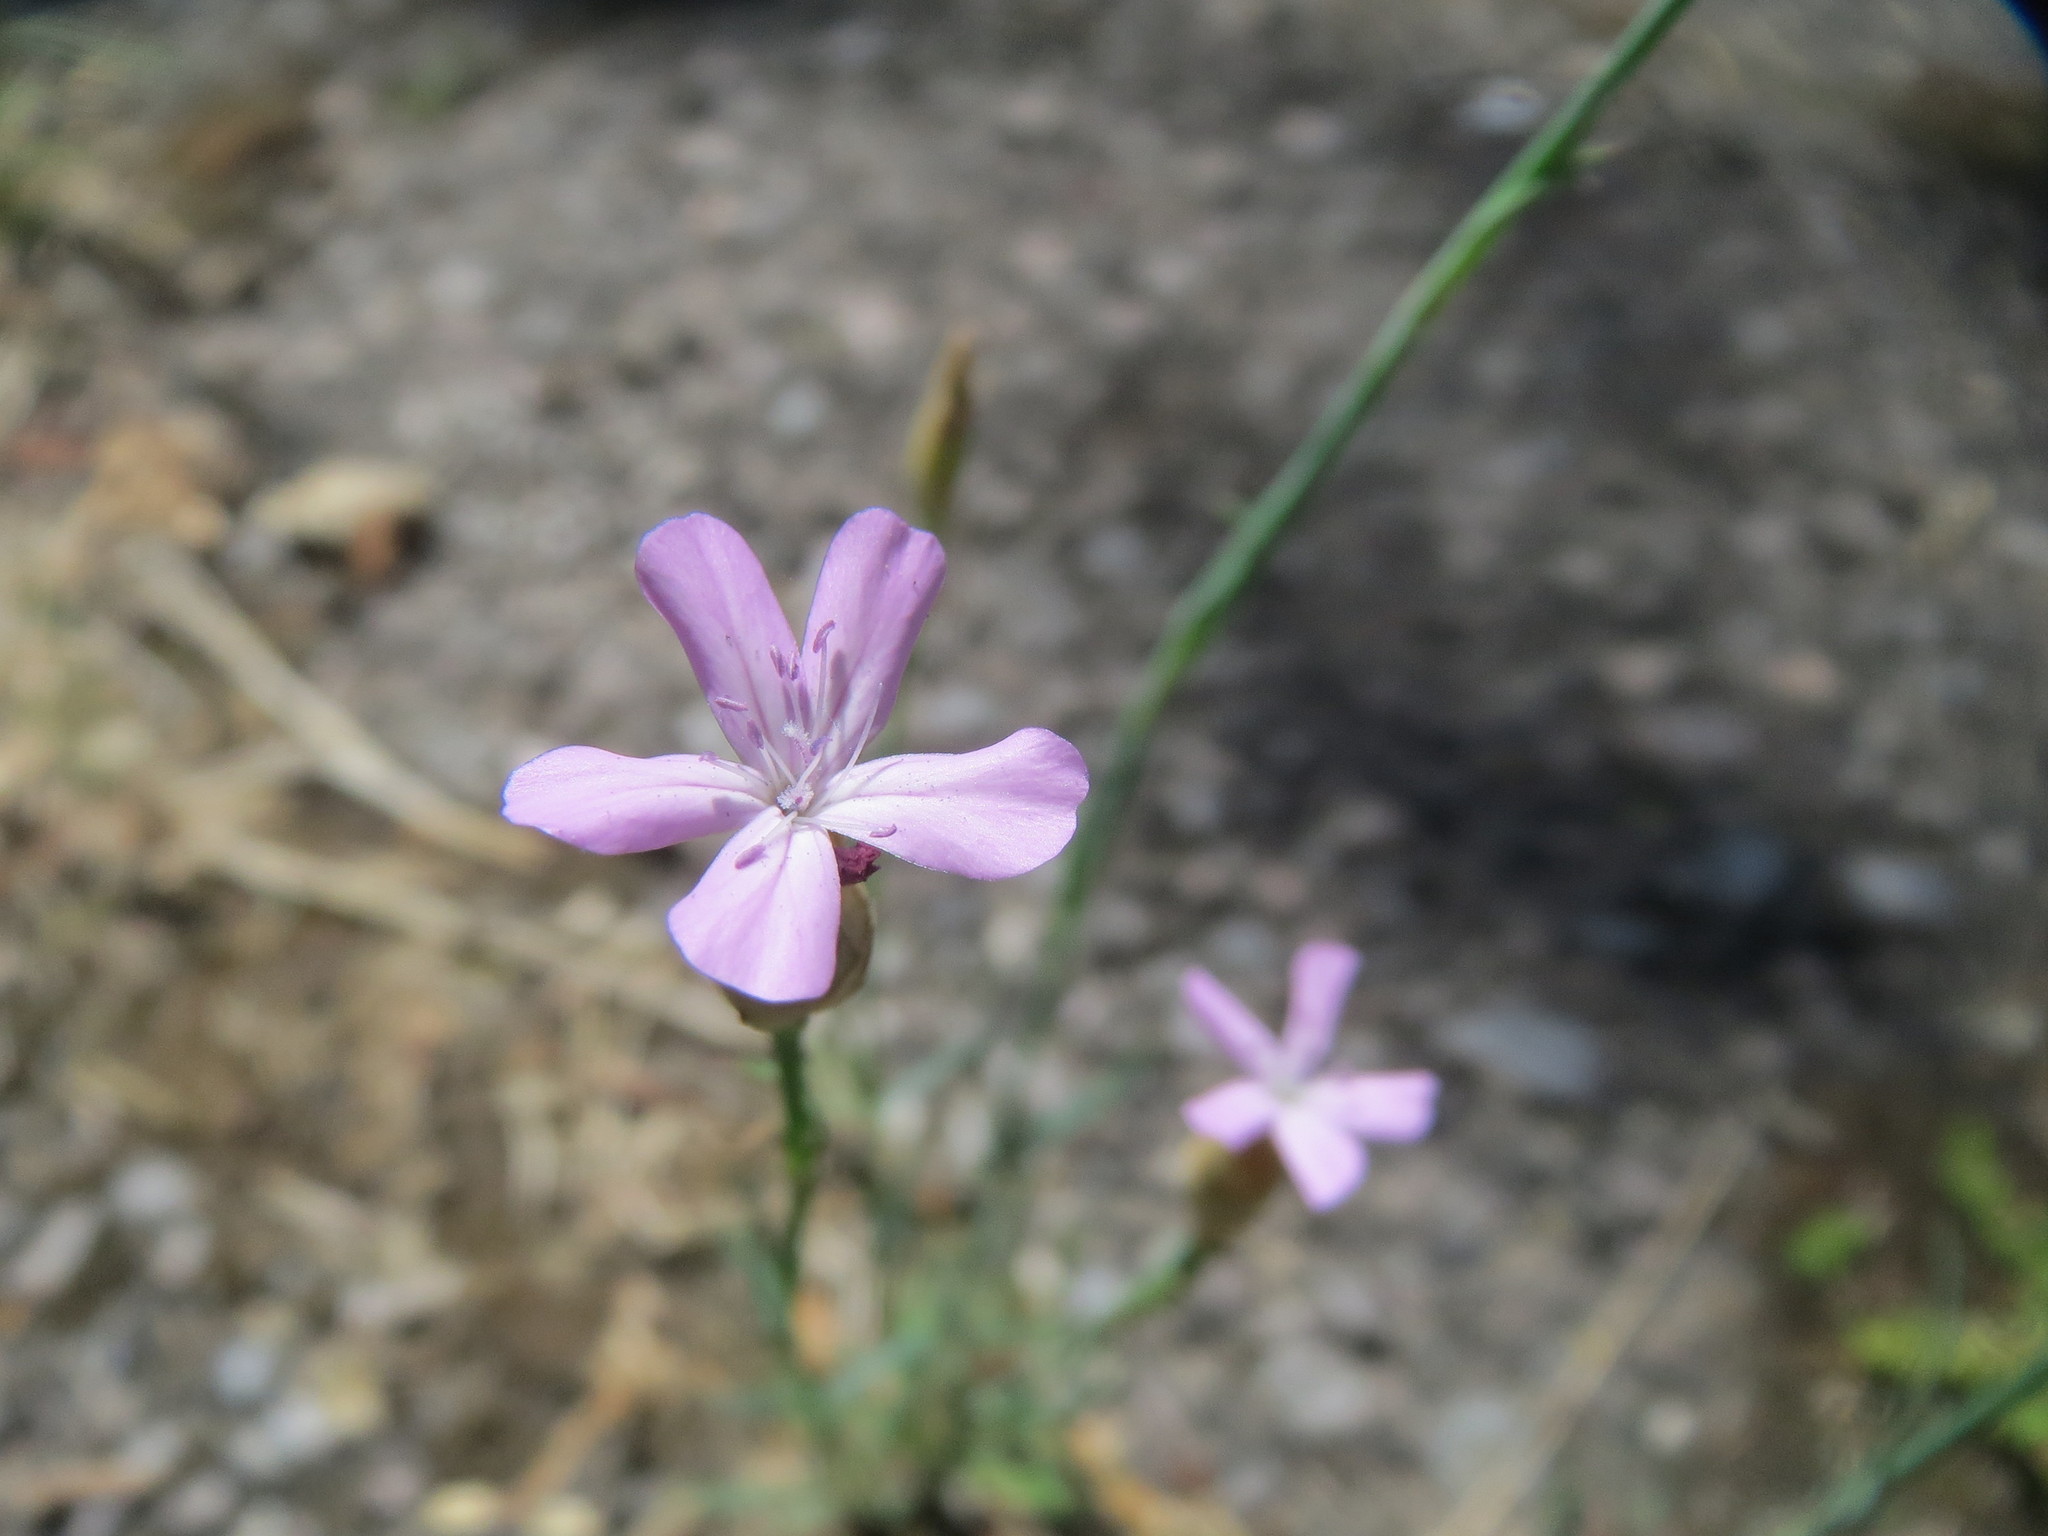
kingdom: Plantae
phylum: Tracheophyta
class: Magnoliopsida
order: Caryophyllales
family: Caryophyllaceae
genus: Petrorhagia
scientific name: Petrorhagia prolifera
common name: Proliferous pink
